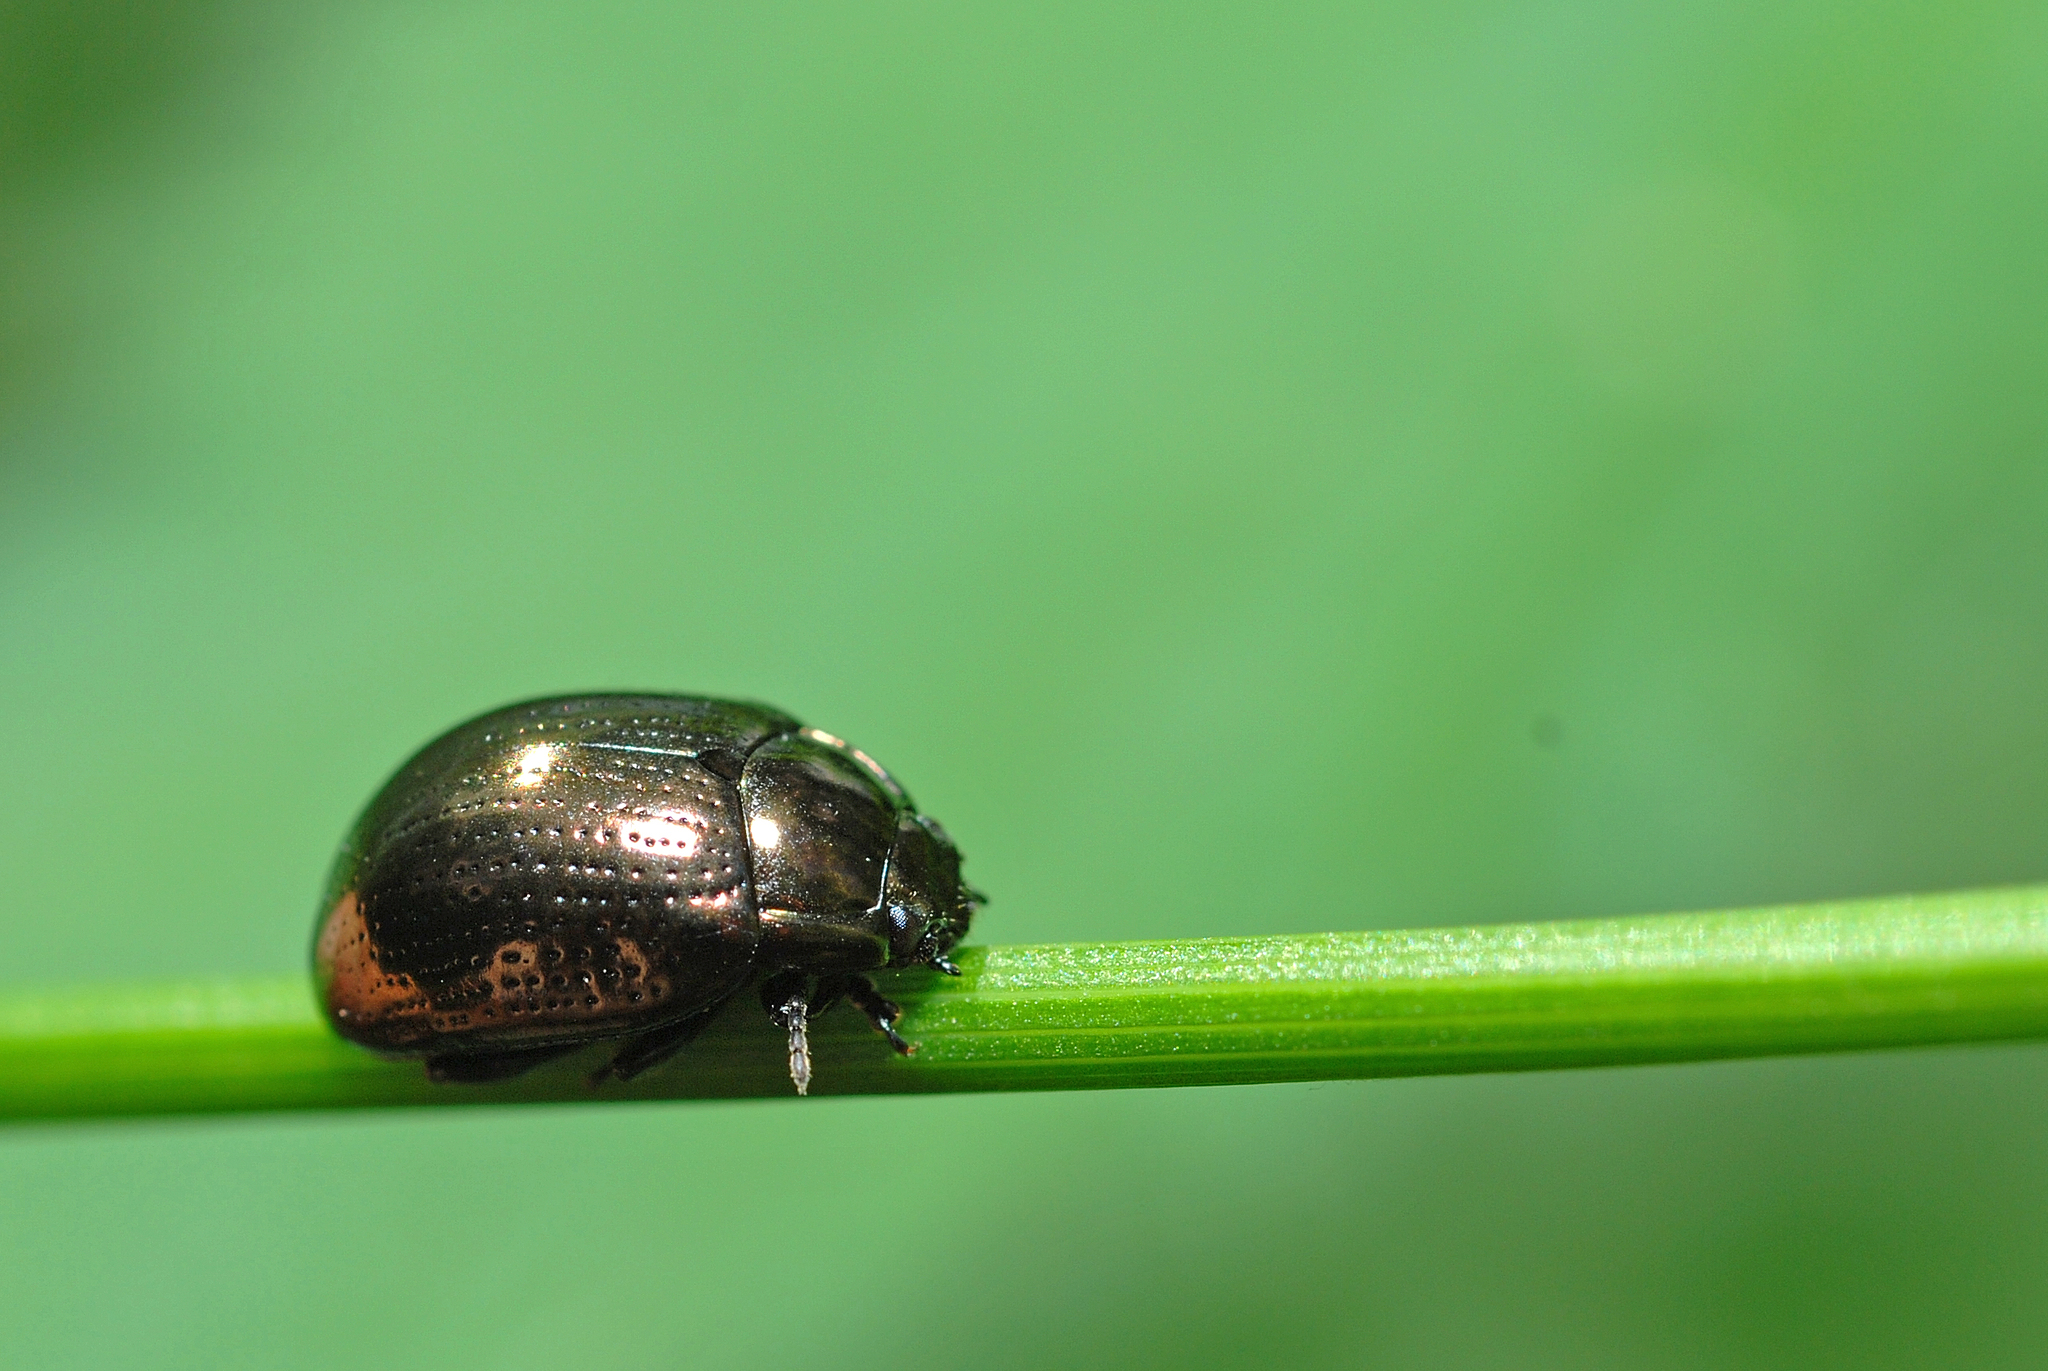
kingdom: Animalia
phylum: Arthropoda
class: Insecta
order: Coleoptera
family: Chrysomelidae
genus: Chrysolina
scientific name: Chrysolina oricalcia
